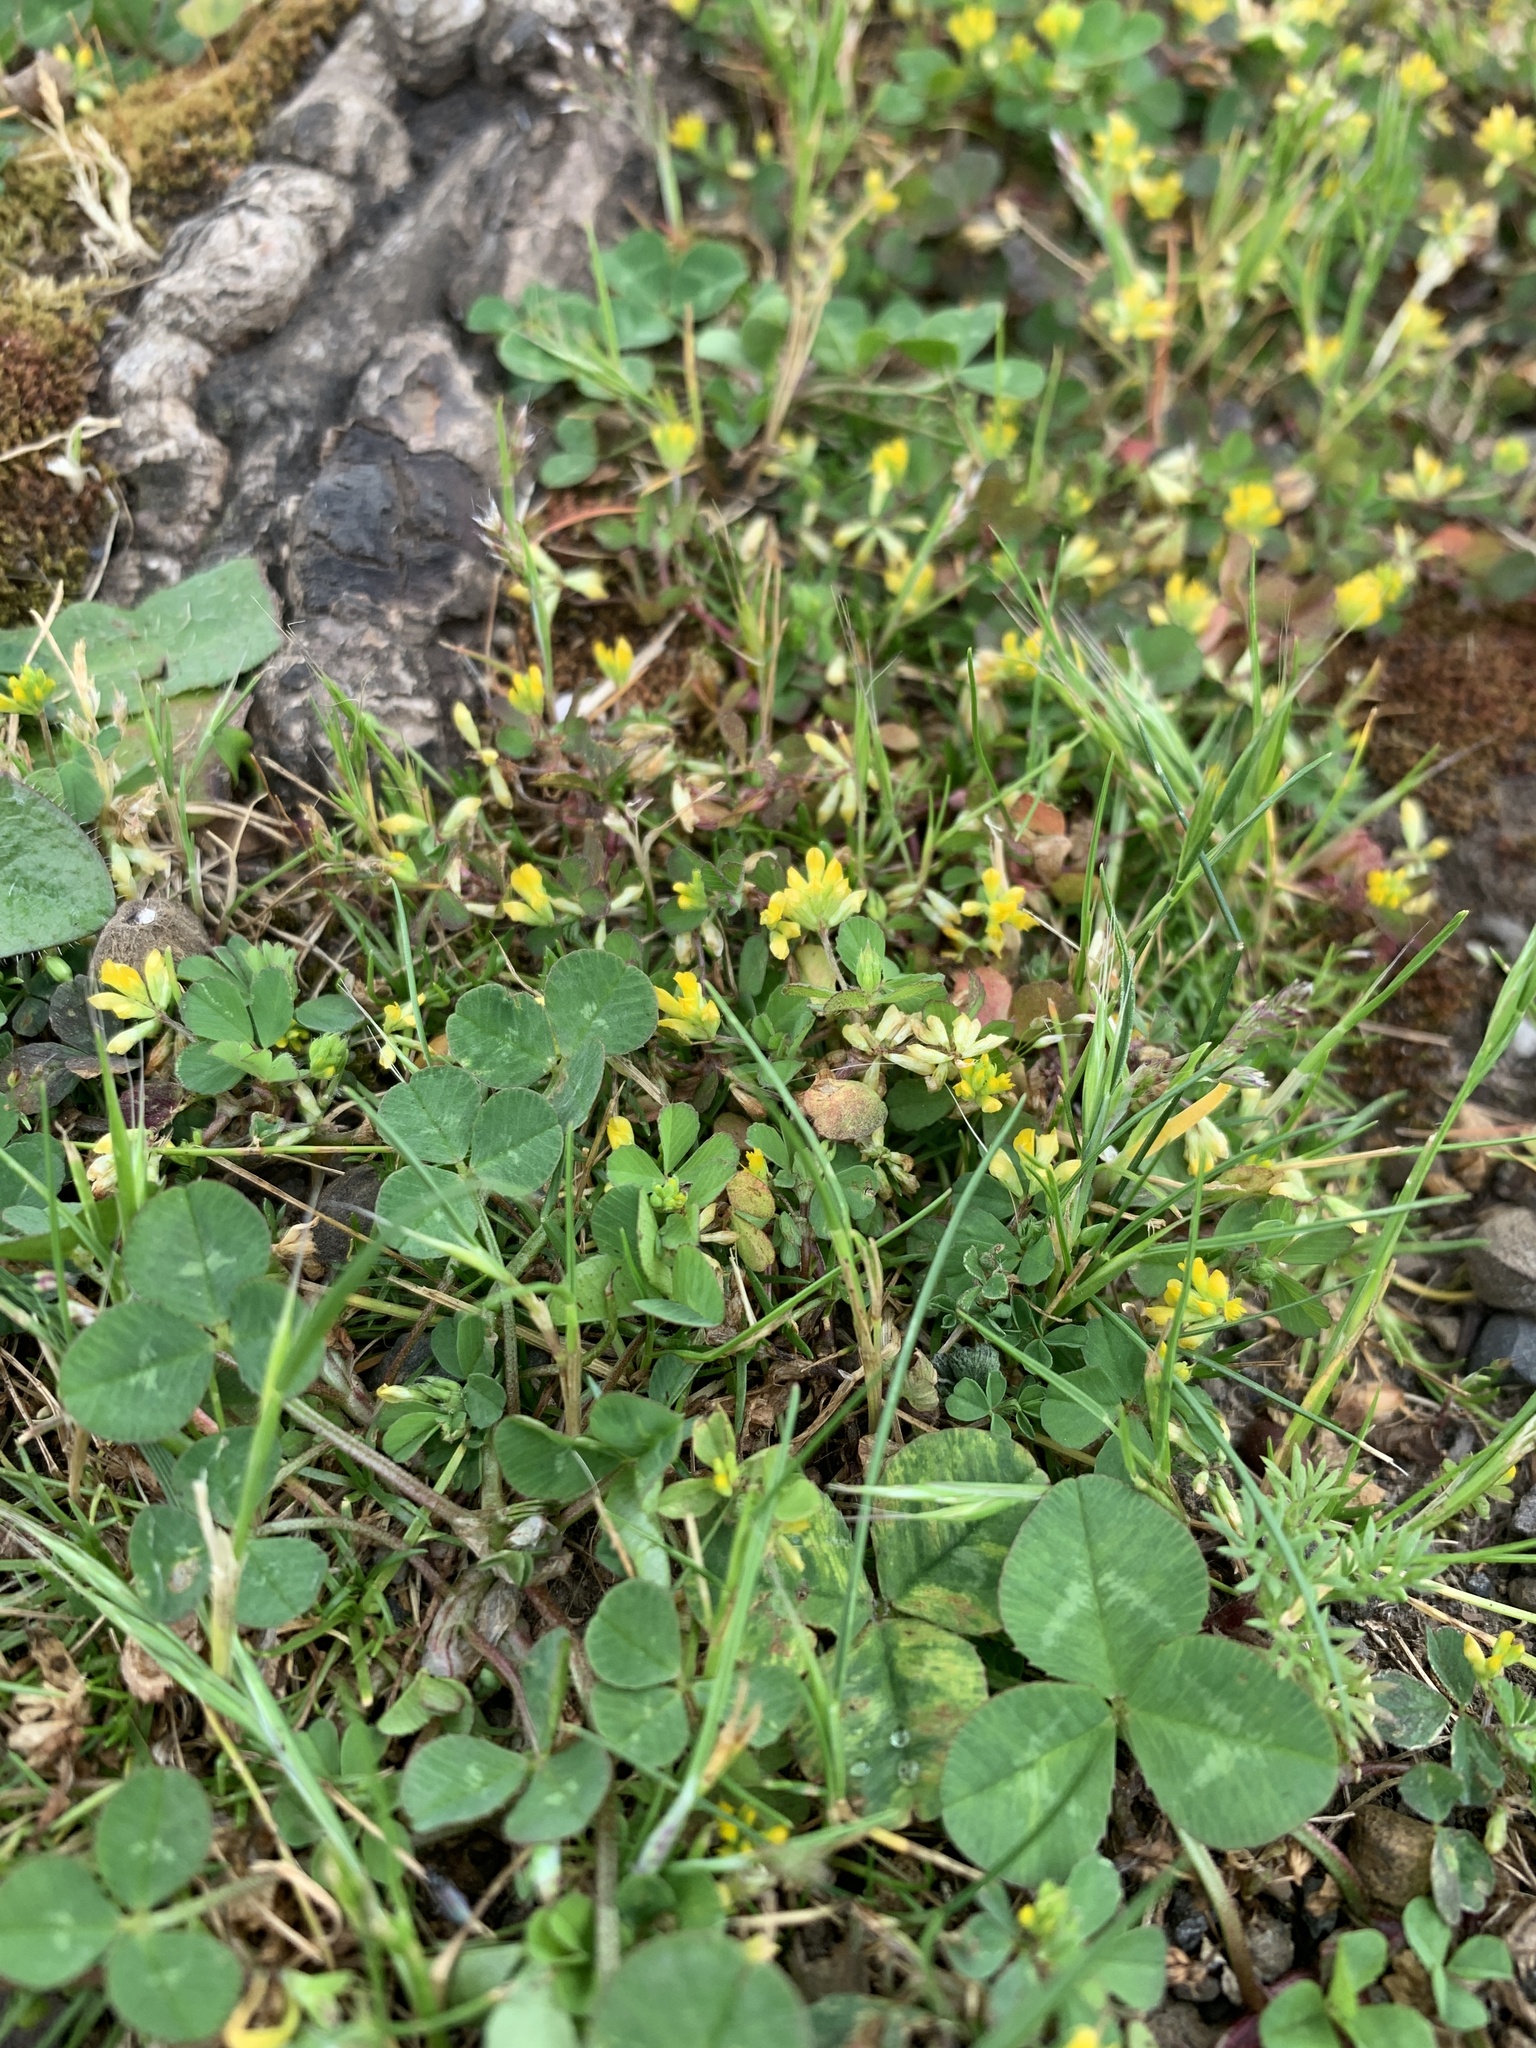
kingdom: Plantae
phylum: Tracheophyta
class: Magnoliopsida
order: Fabales
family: Fabaceae
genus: Trifolium
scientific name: Trifolium dubium
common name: Suckling clover
